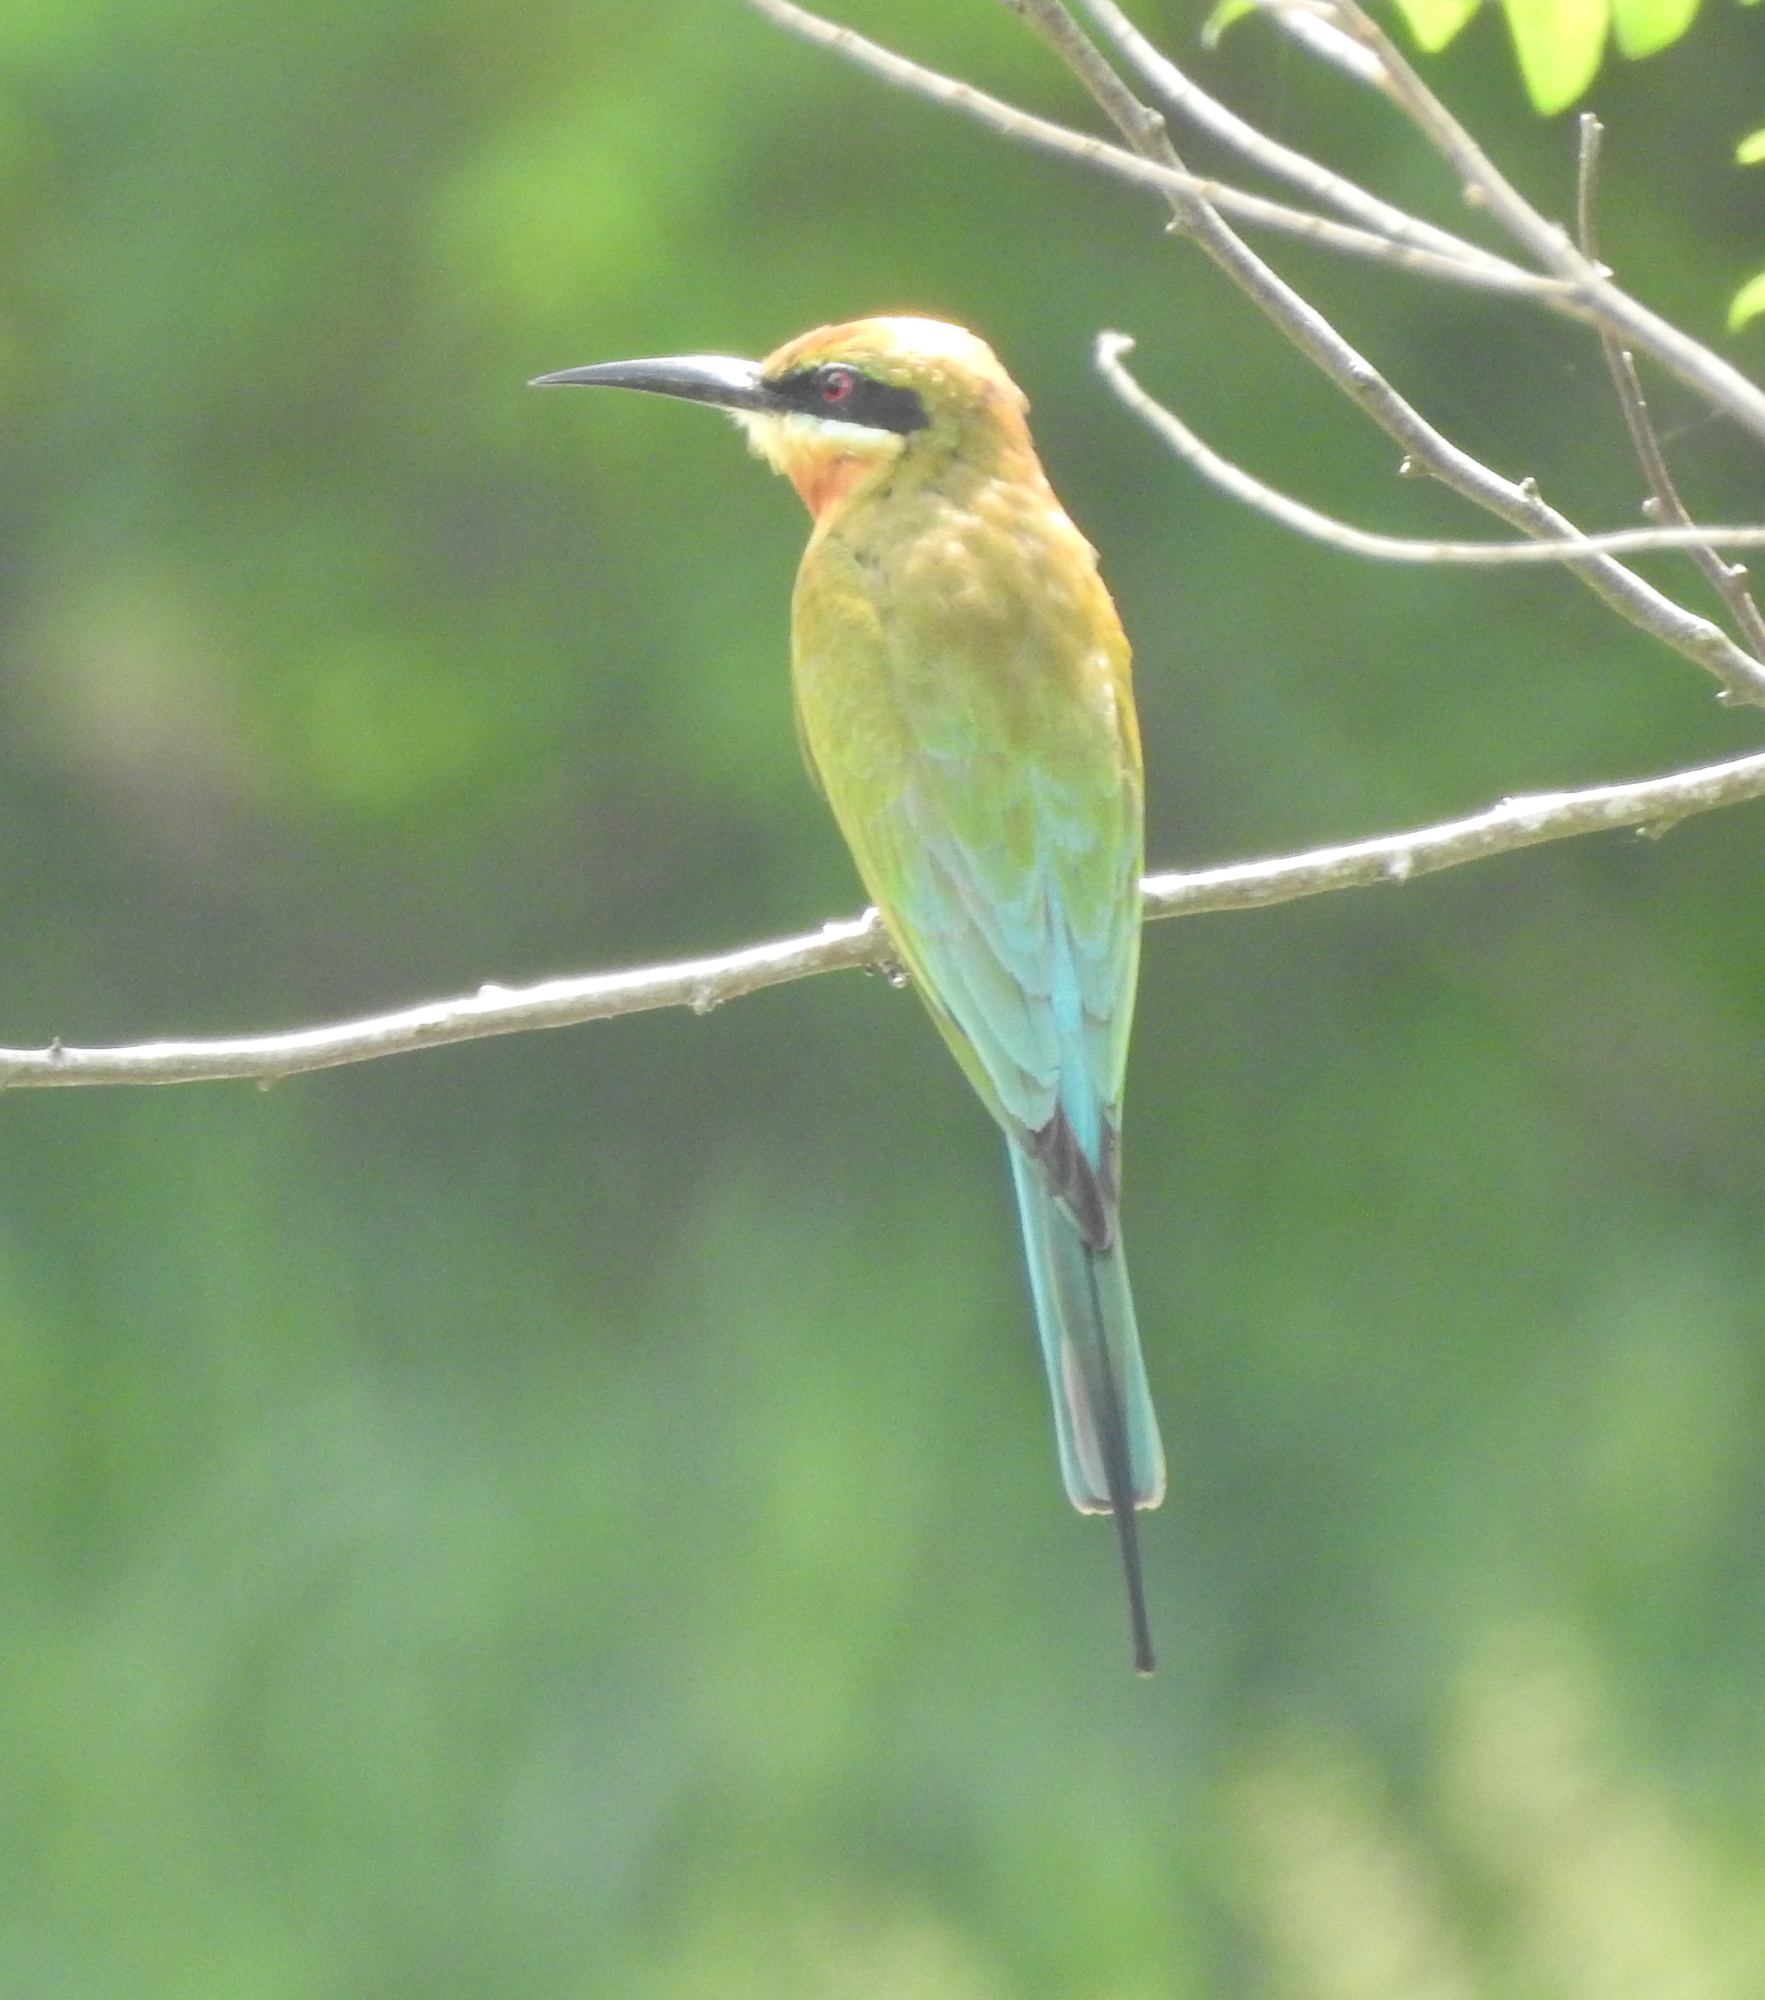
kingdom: Animalia
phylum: Chordata
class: Aves
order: Coraciiformes
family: Meropidae
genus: Merops
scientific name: Merops philippinus
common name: Blue-tailed bee-eater
